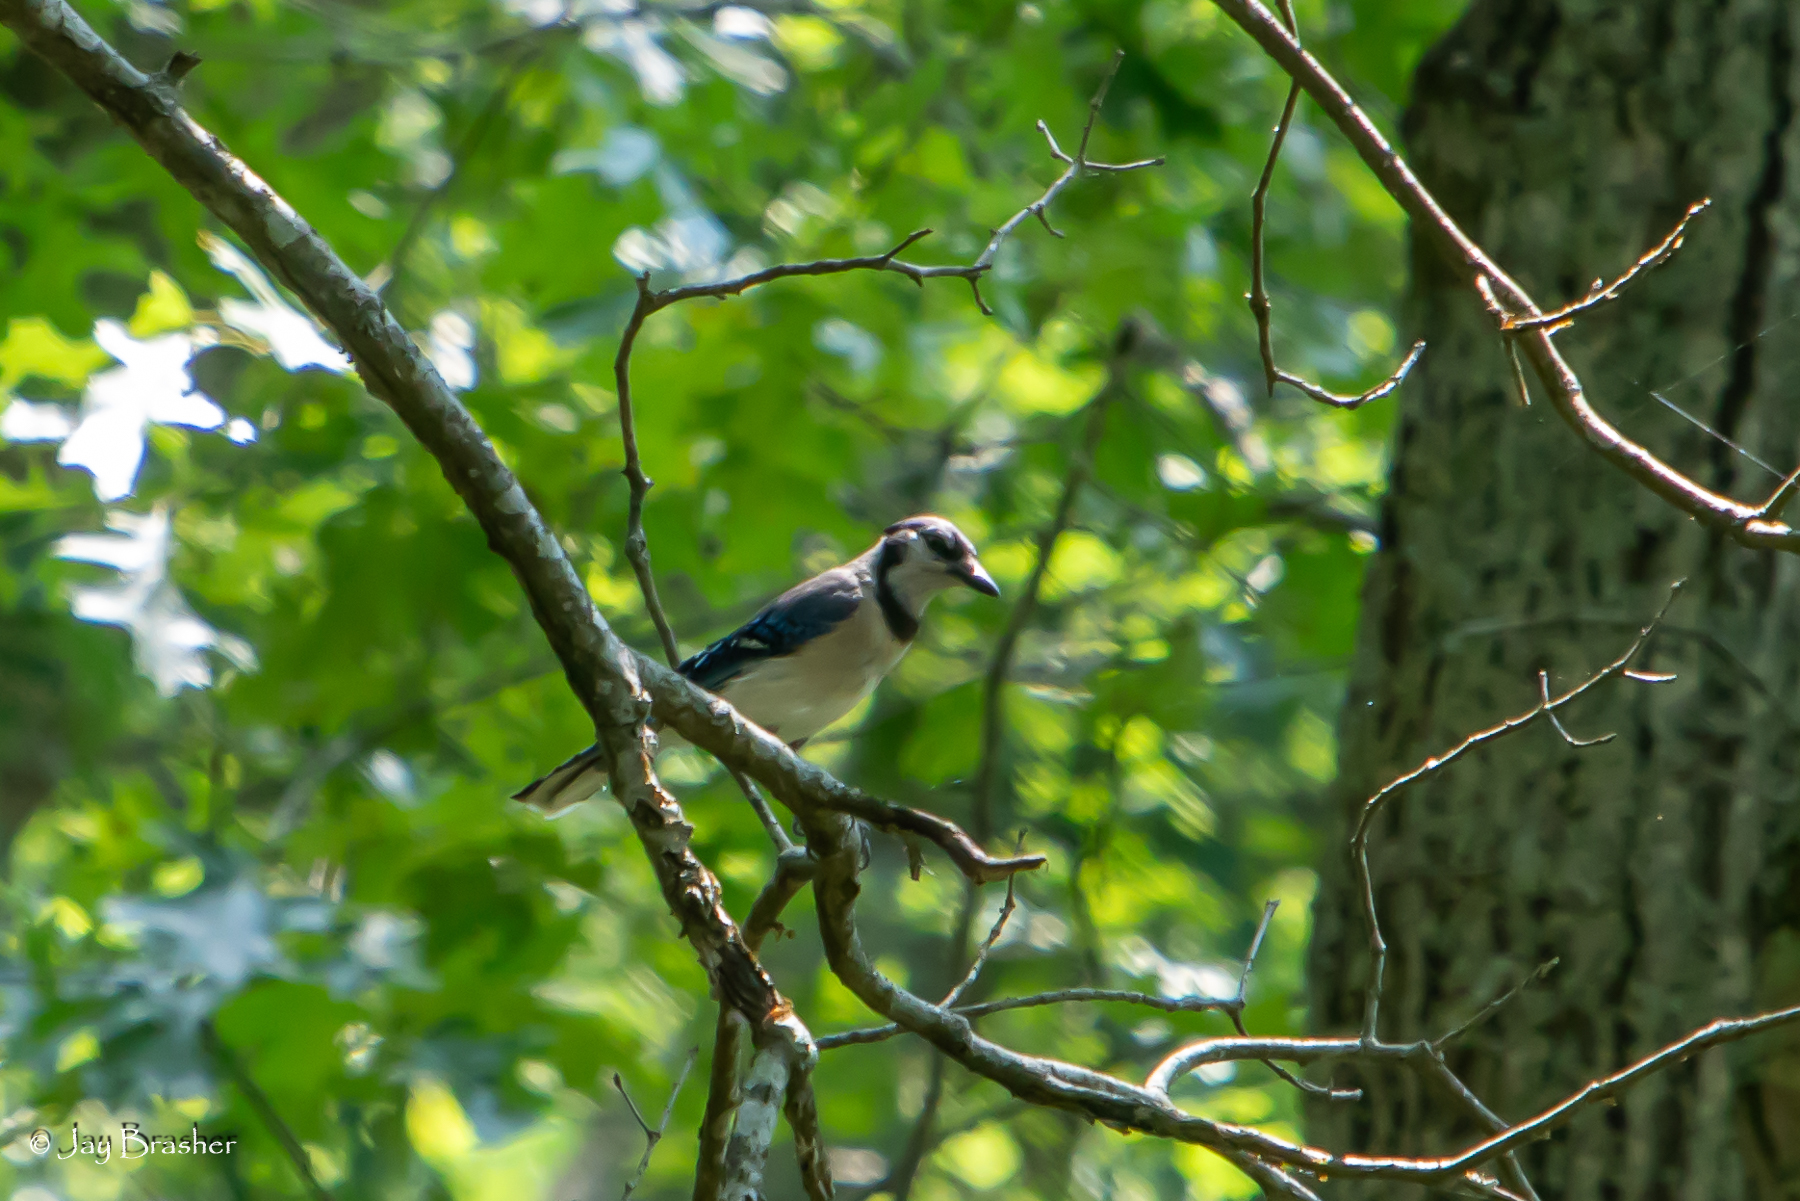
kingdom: Animalia
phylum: Chordata
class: Aves
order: Passeriformes
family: Corvidae
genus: Cyanocitta
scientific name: Cyanocitta cristata
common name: Blue jay
